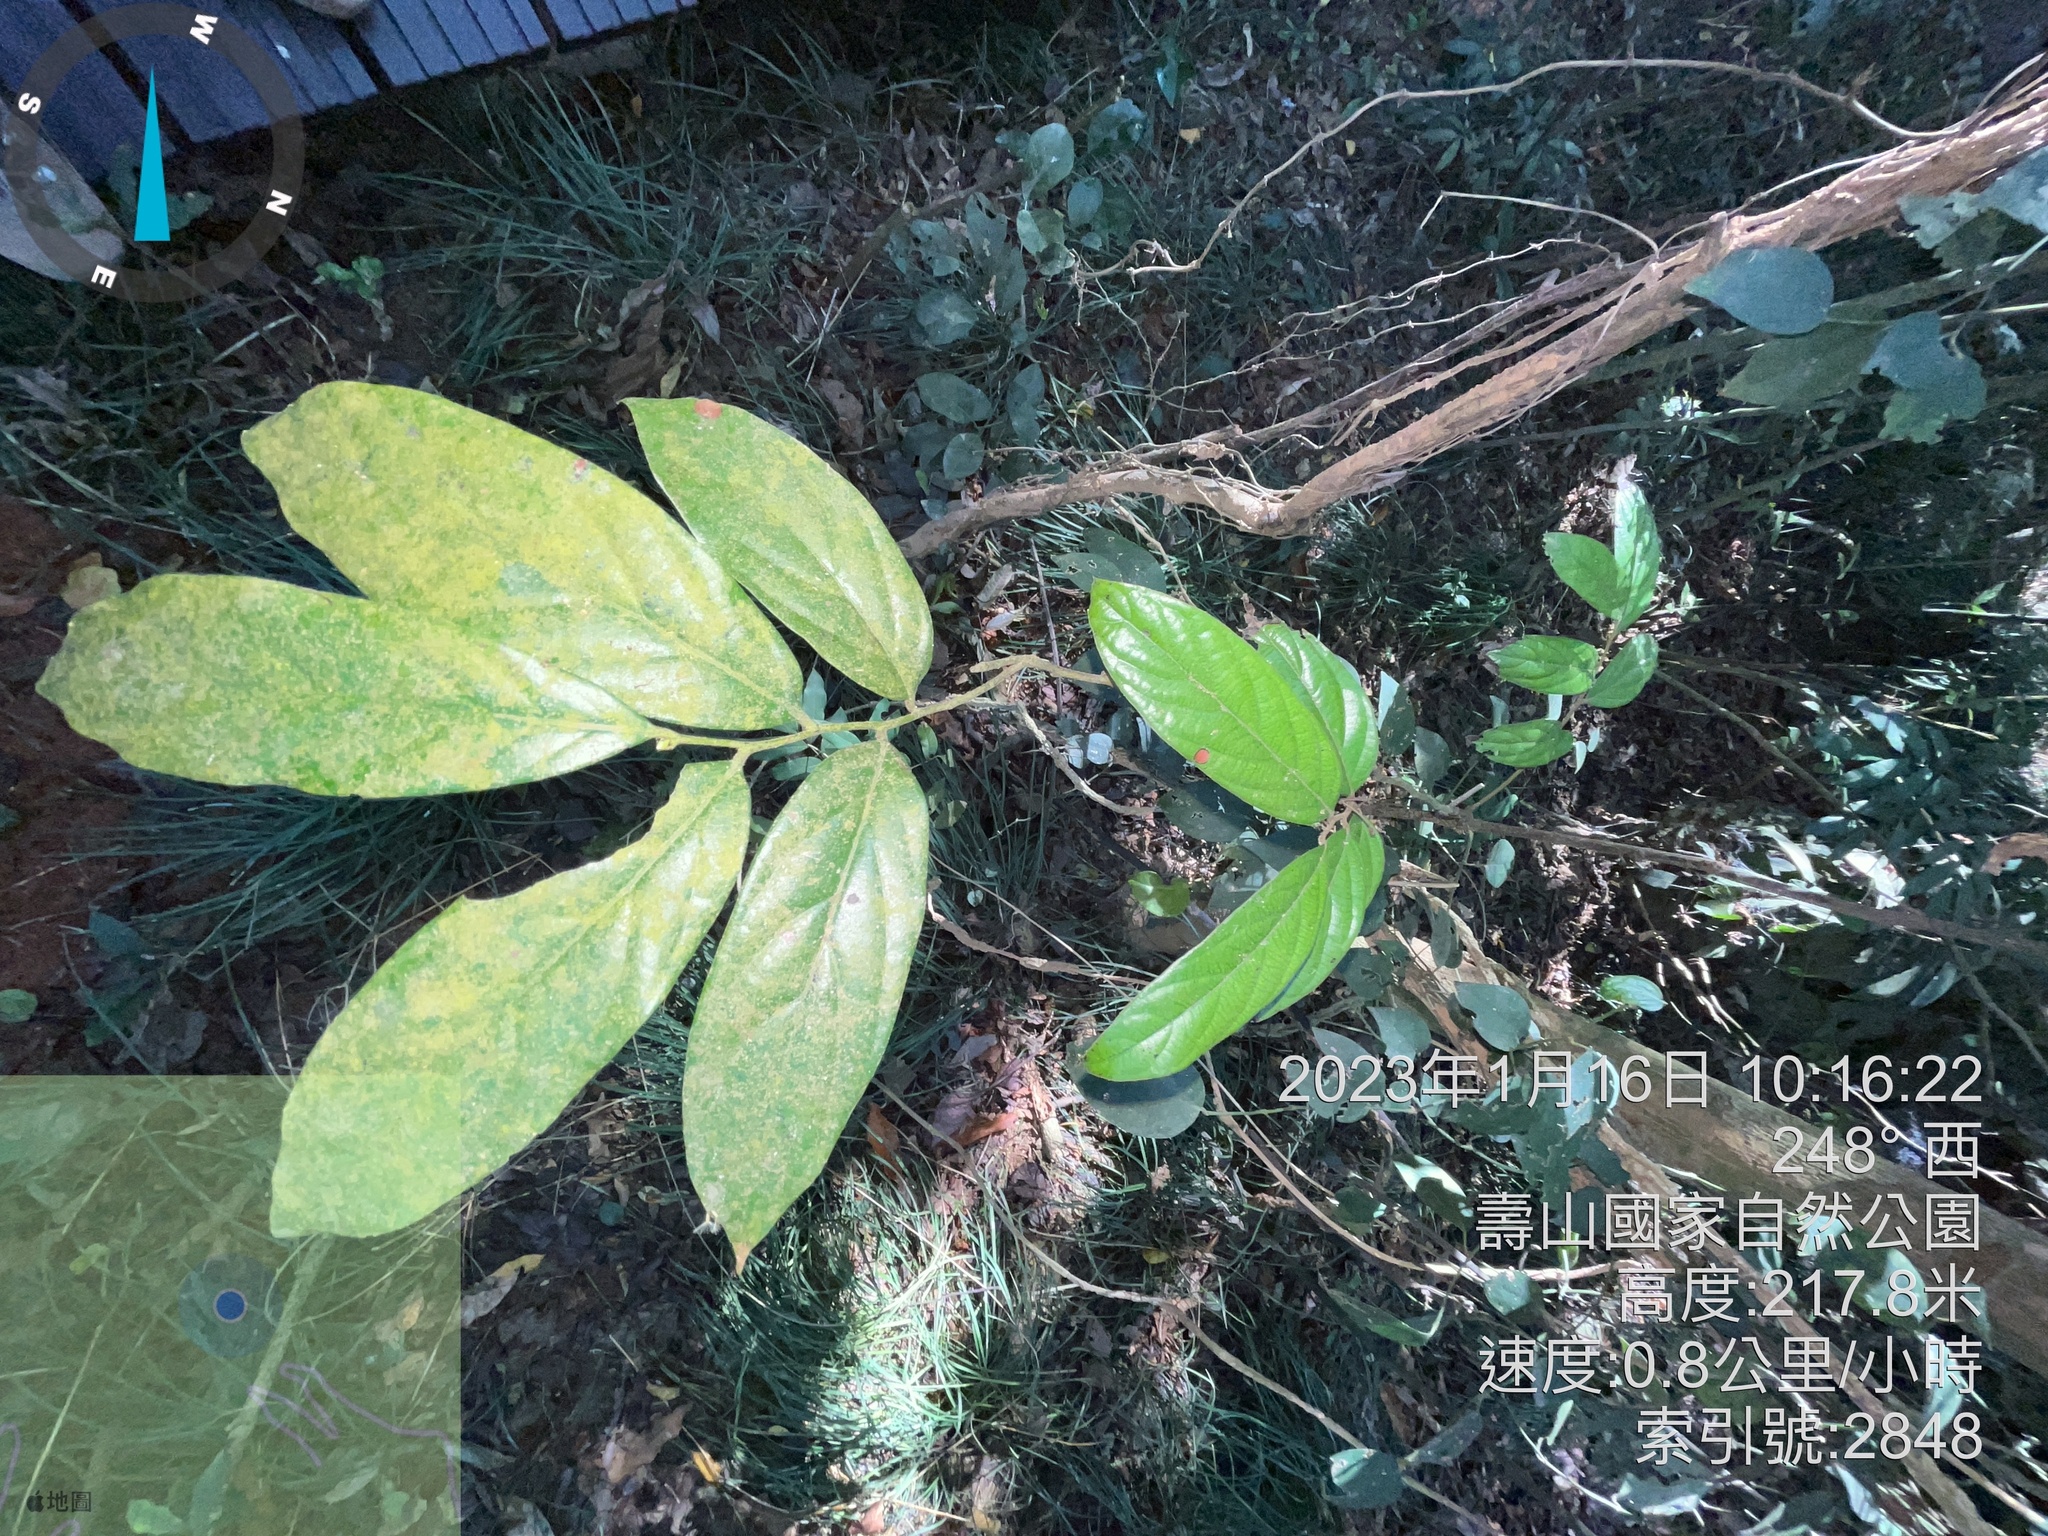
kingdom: Plantae
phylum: Tracheophyta
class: Magnoliopsida
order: Ericales
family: Ebenaceae
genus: Diospyros
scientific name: Diospyros eriantha
